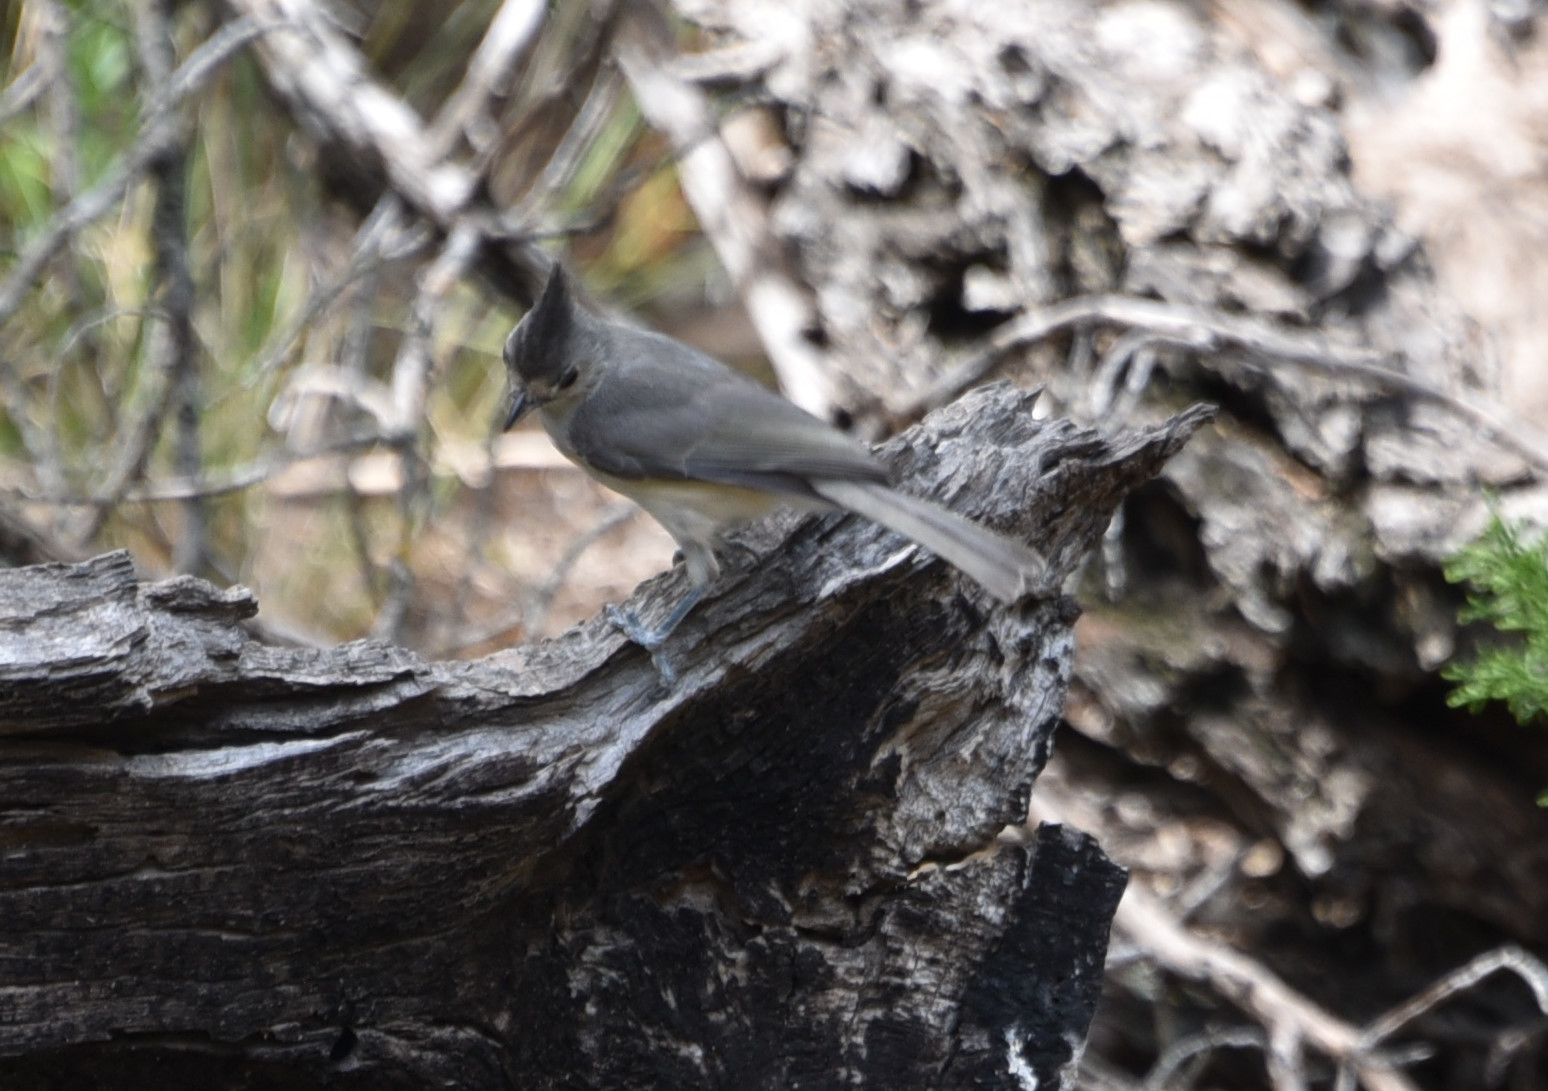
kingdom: Animalia
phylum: Chordata
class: Aves
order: Passeriformes
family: Paridae
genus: Baeolophus
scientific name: Baeolophus atricristatus
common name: Black-crested titmouse
